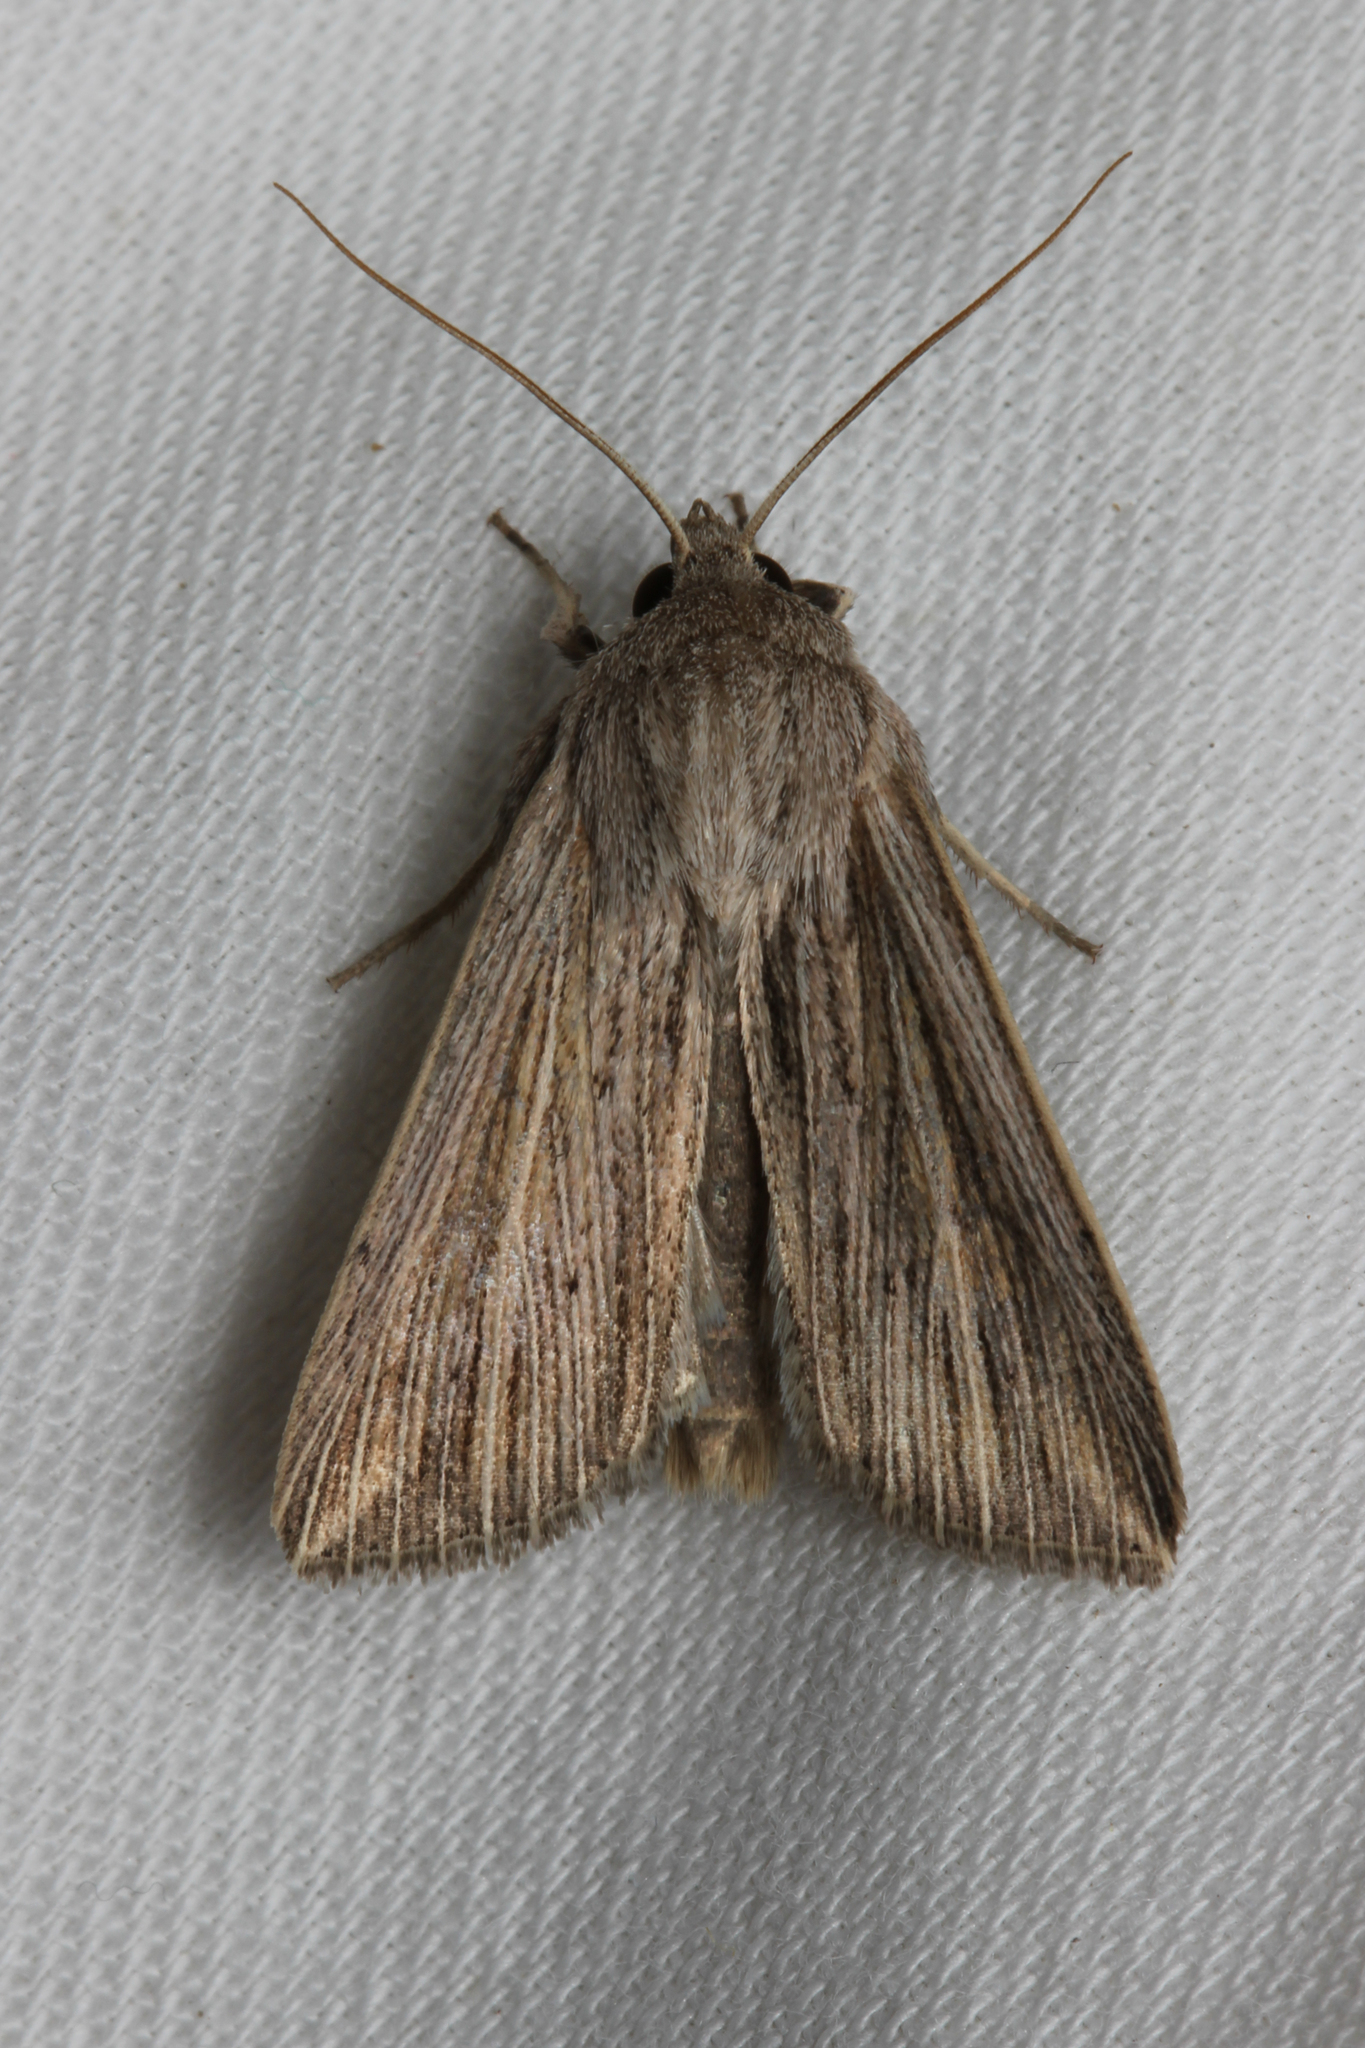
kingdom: Animalia
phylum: Arthropoda
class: Insecta
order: Lepidoptera
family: Noctuidae
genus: Mythimna
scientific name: Mythimna riparia
